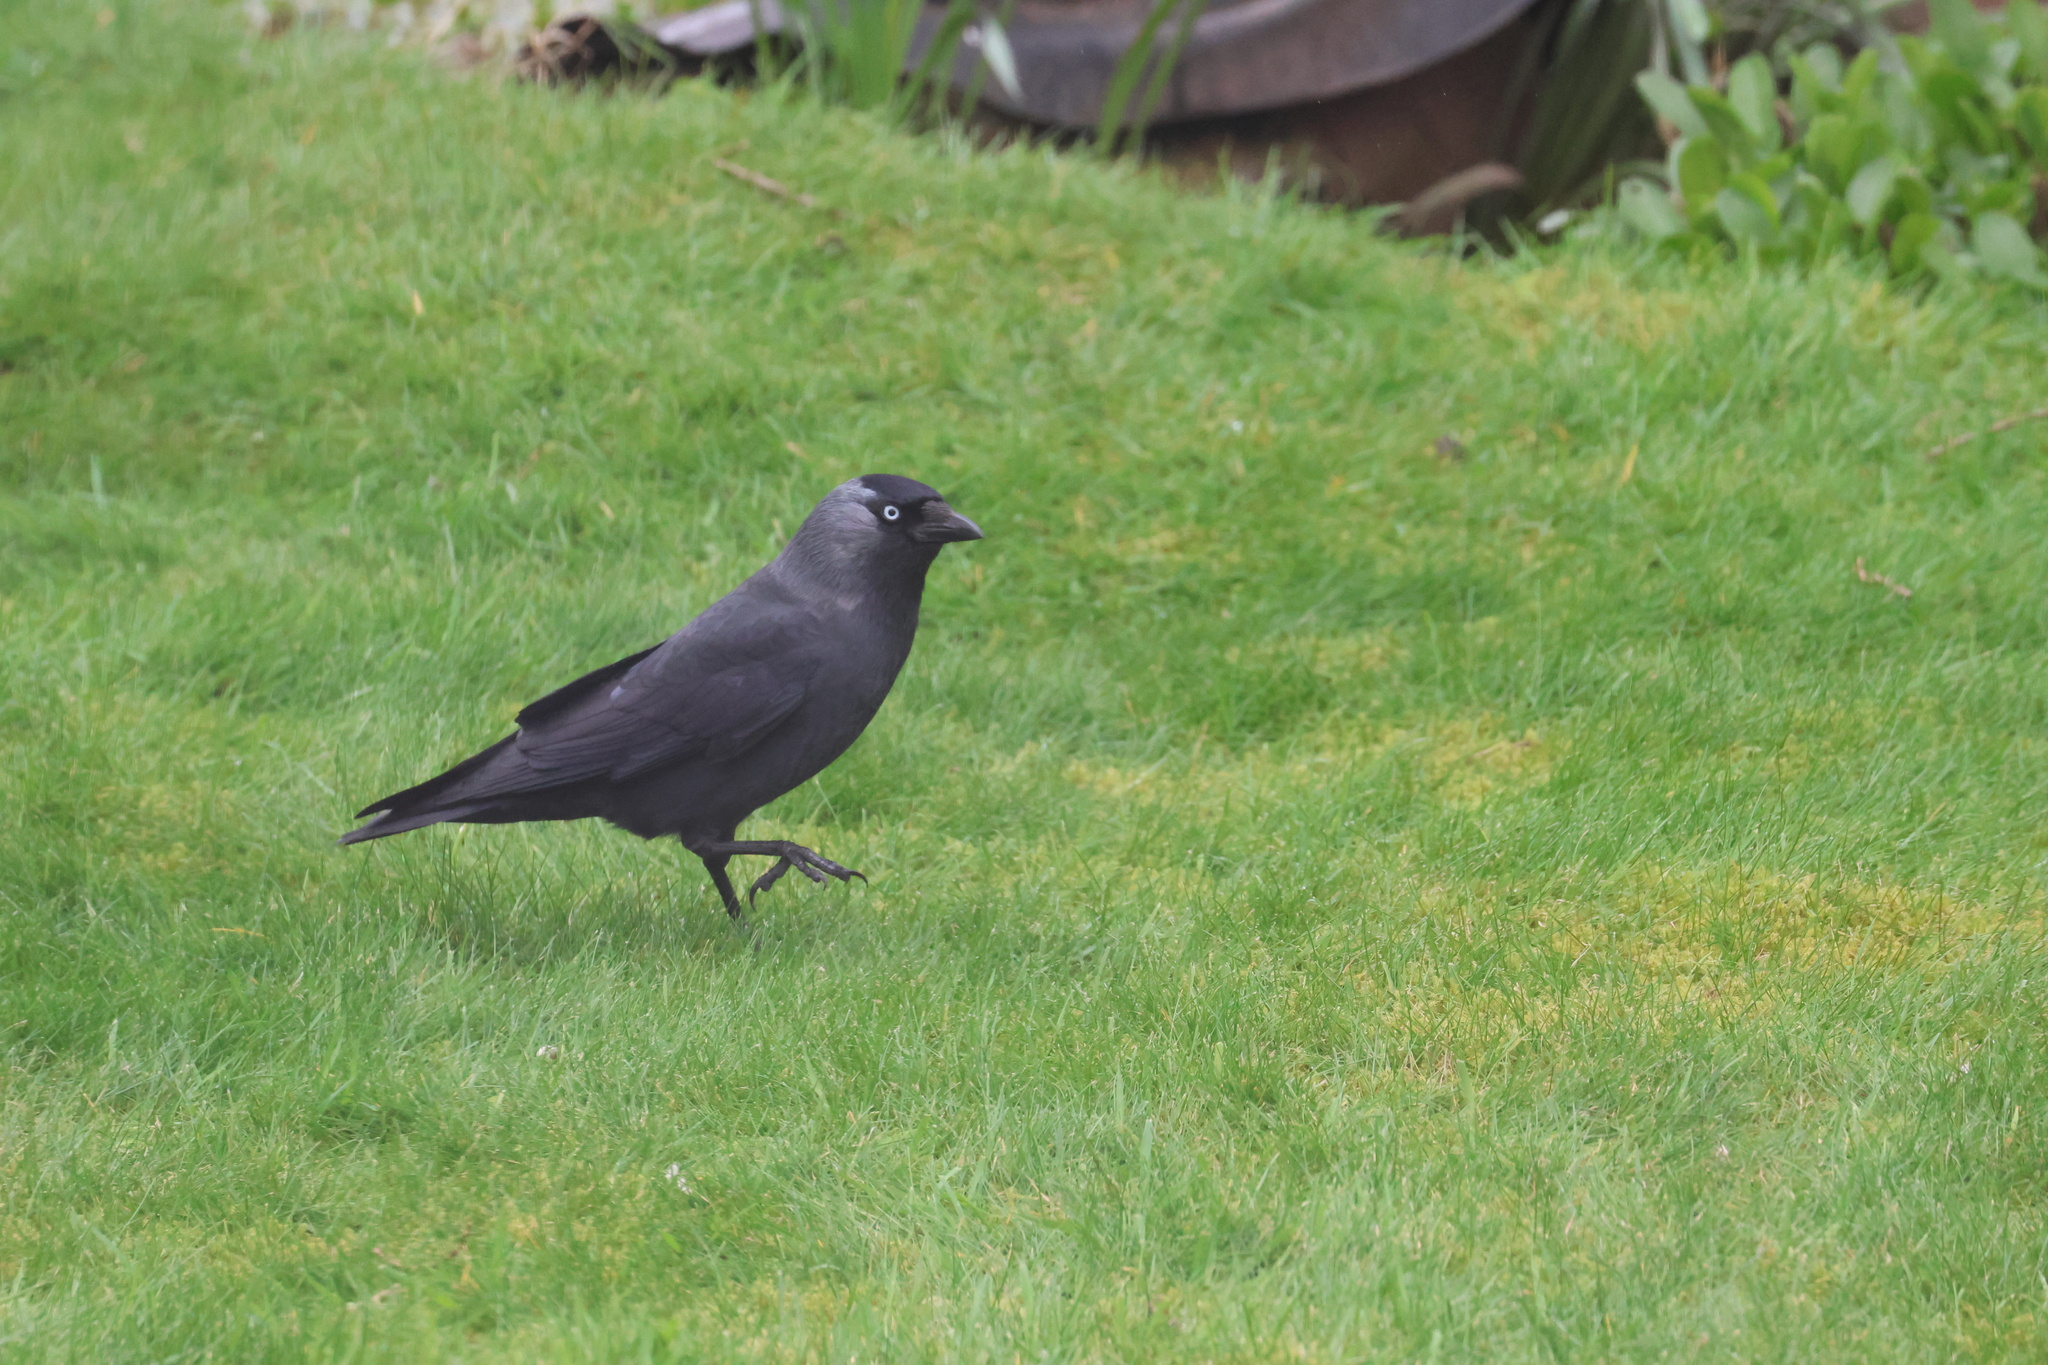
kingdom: Animalia
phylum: Chordata
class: Aves
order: Passeriformes
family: Corvidae
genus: Coloeus
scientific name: Coloeus monedula
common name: Western jackdaw
